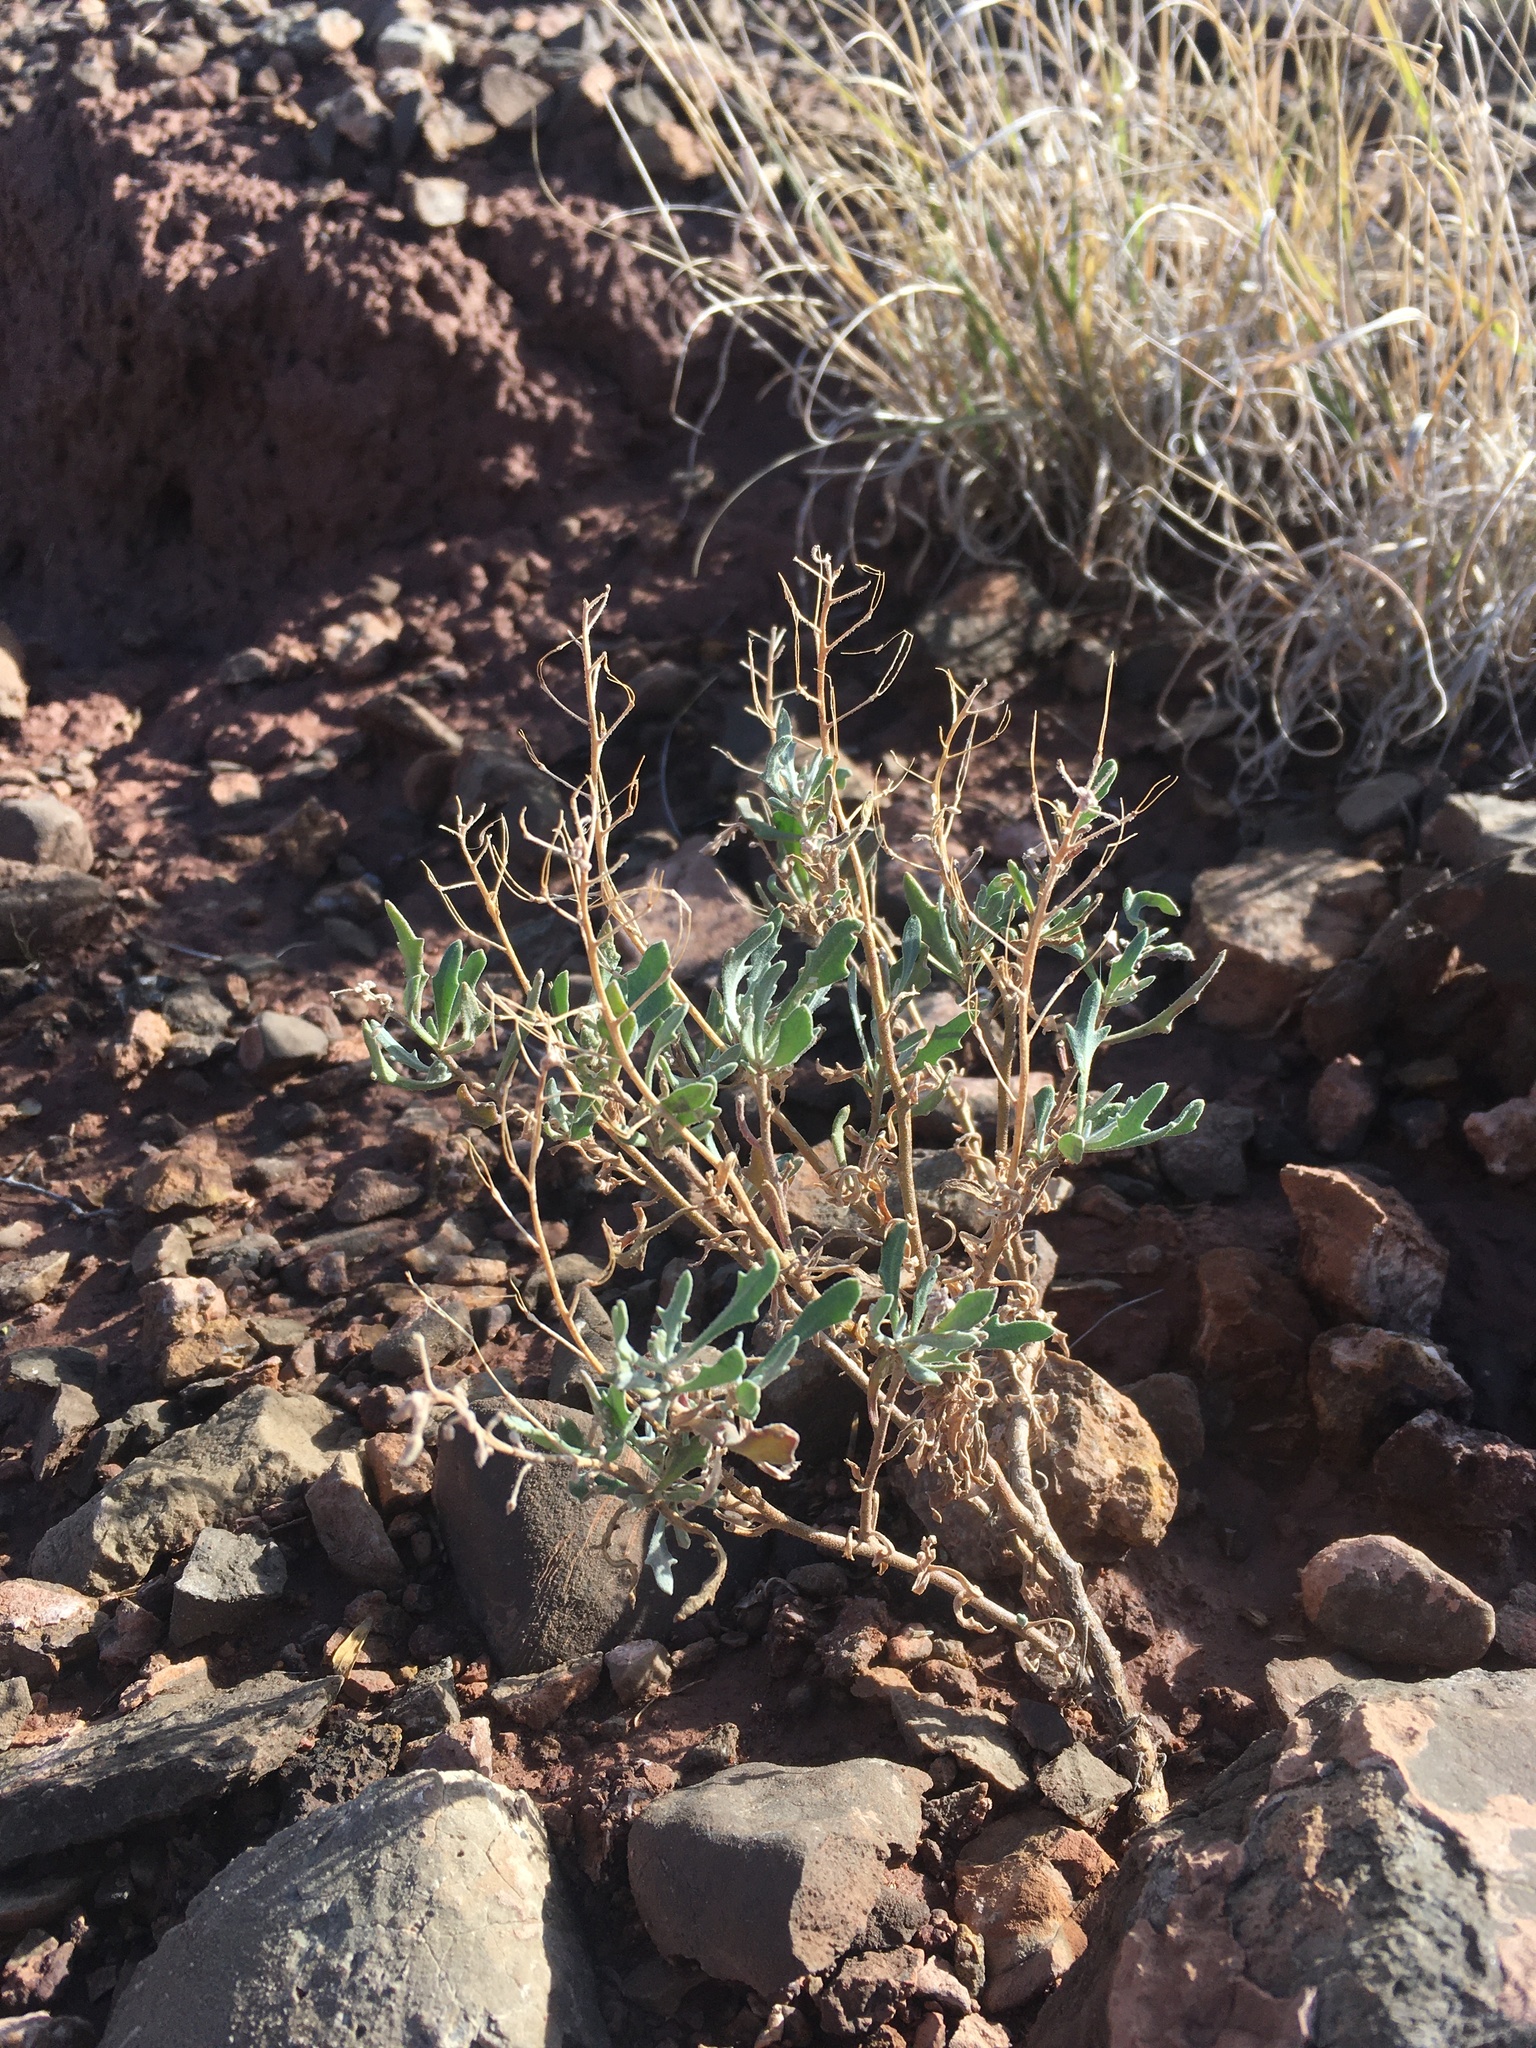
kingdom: Plantae
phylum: Tracheophyta
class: Magnoliopsida
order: Brassicales
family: Brassicaceae
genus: Nerisyrenia
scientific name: Nerisyrenia camporum
